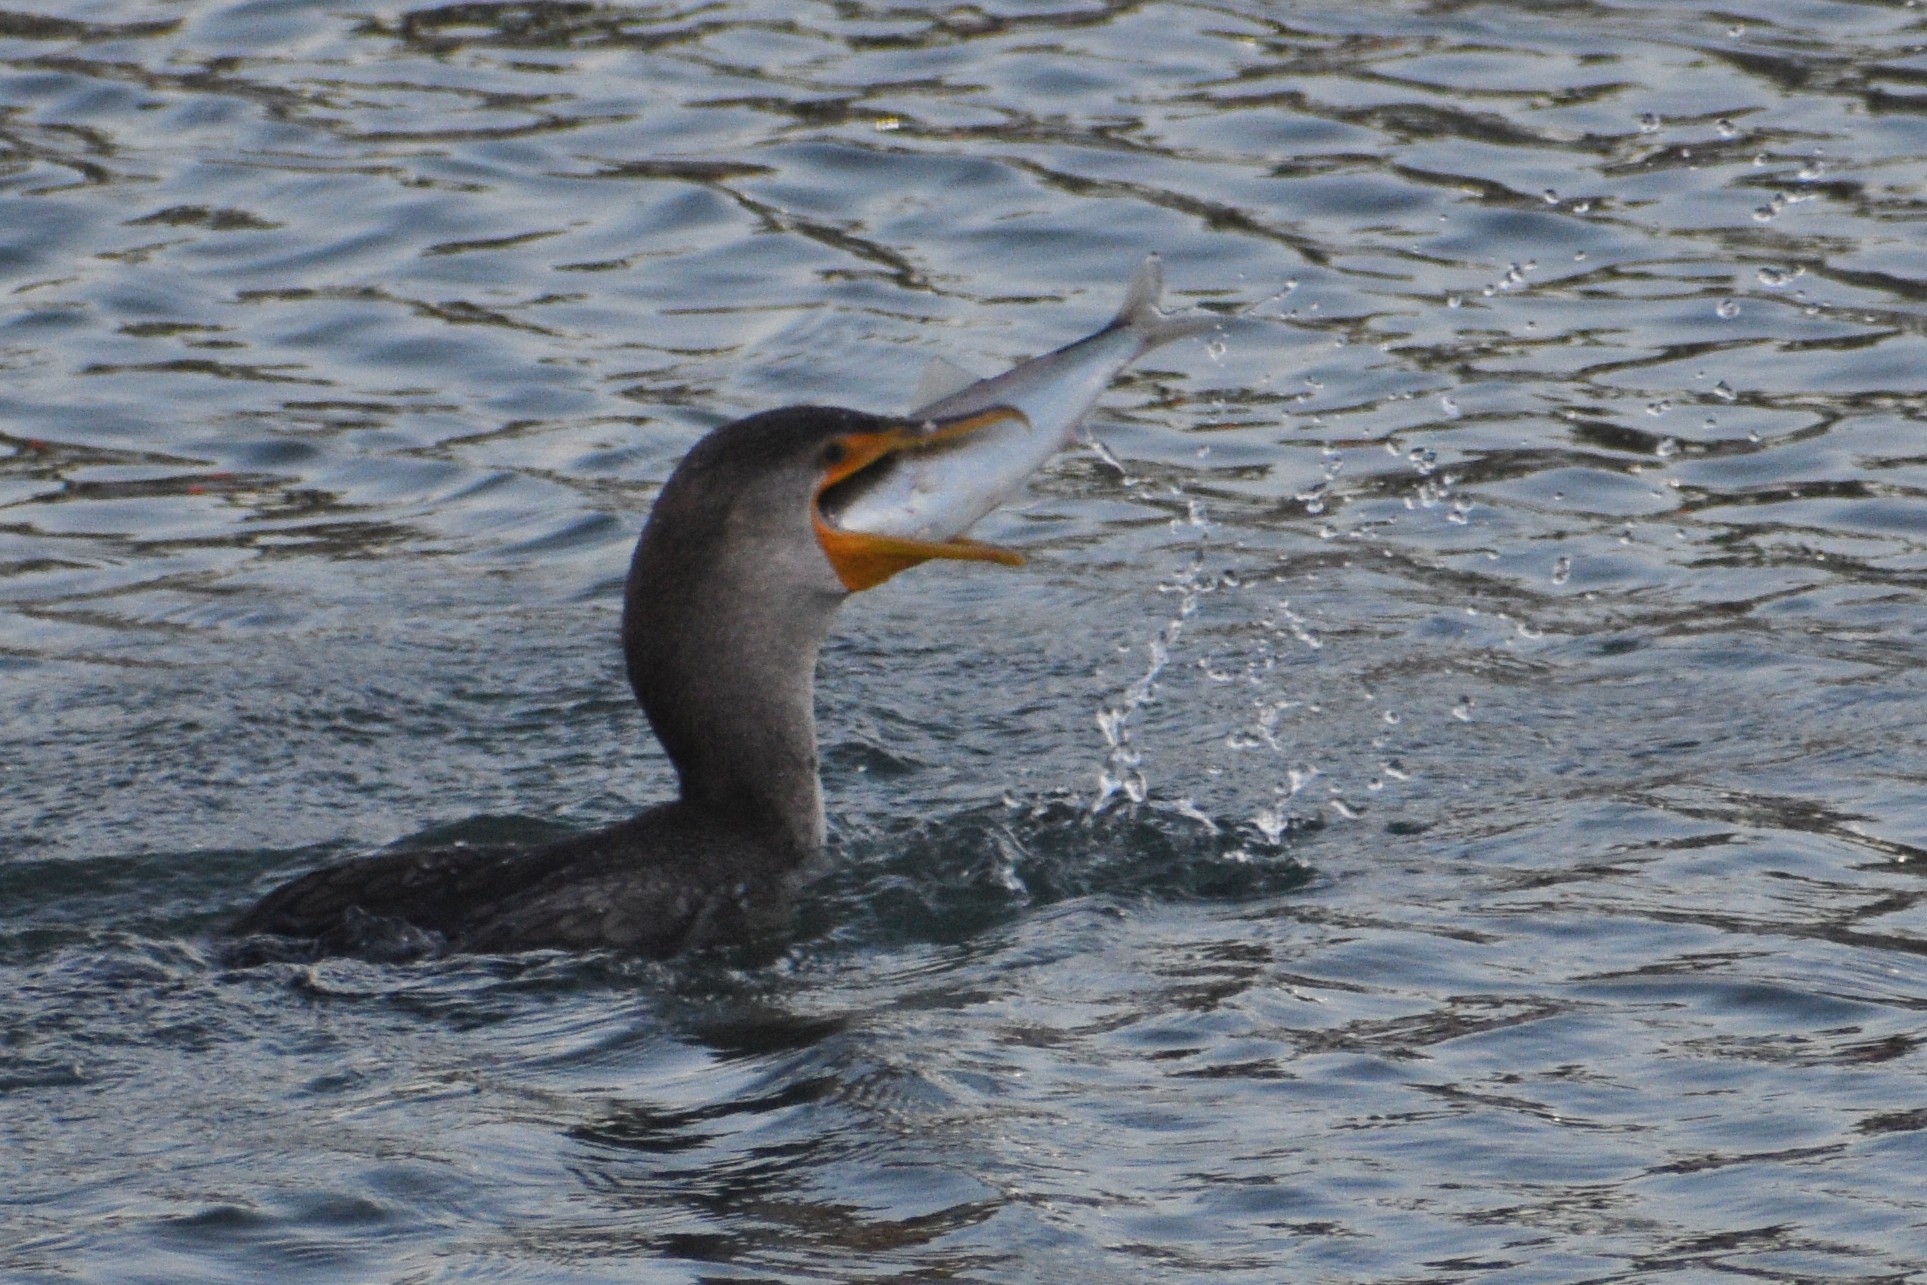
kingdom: Animalia
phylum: Chordata
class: Aves
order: Suliformes
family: Phalacrocoracidae
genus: Phalacrocorax
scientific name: Phalacrocorax auritus
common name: Double-crested cormorant
